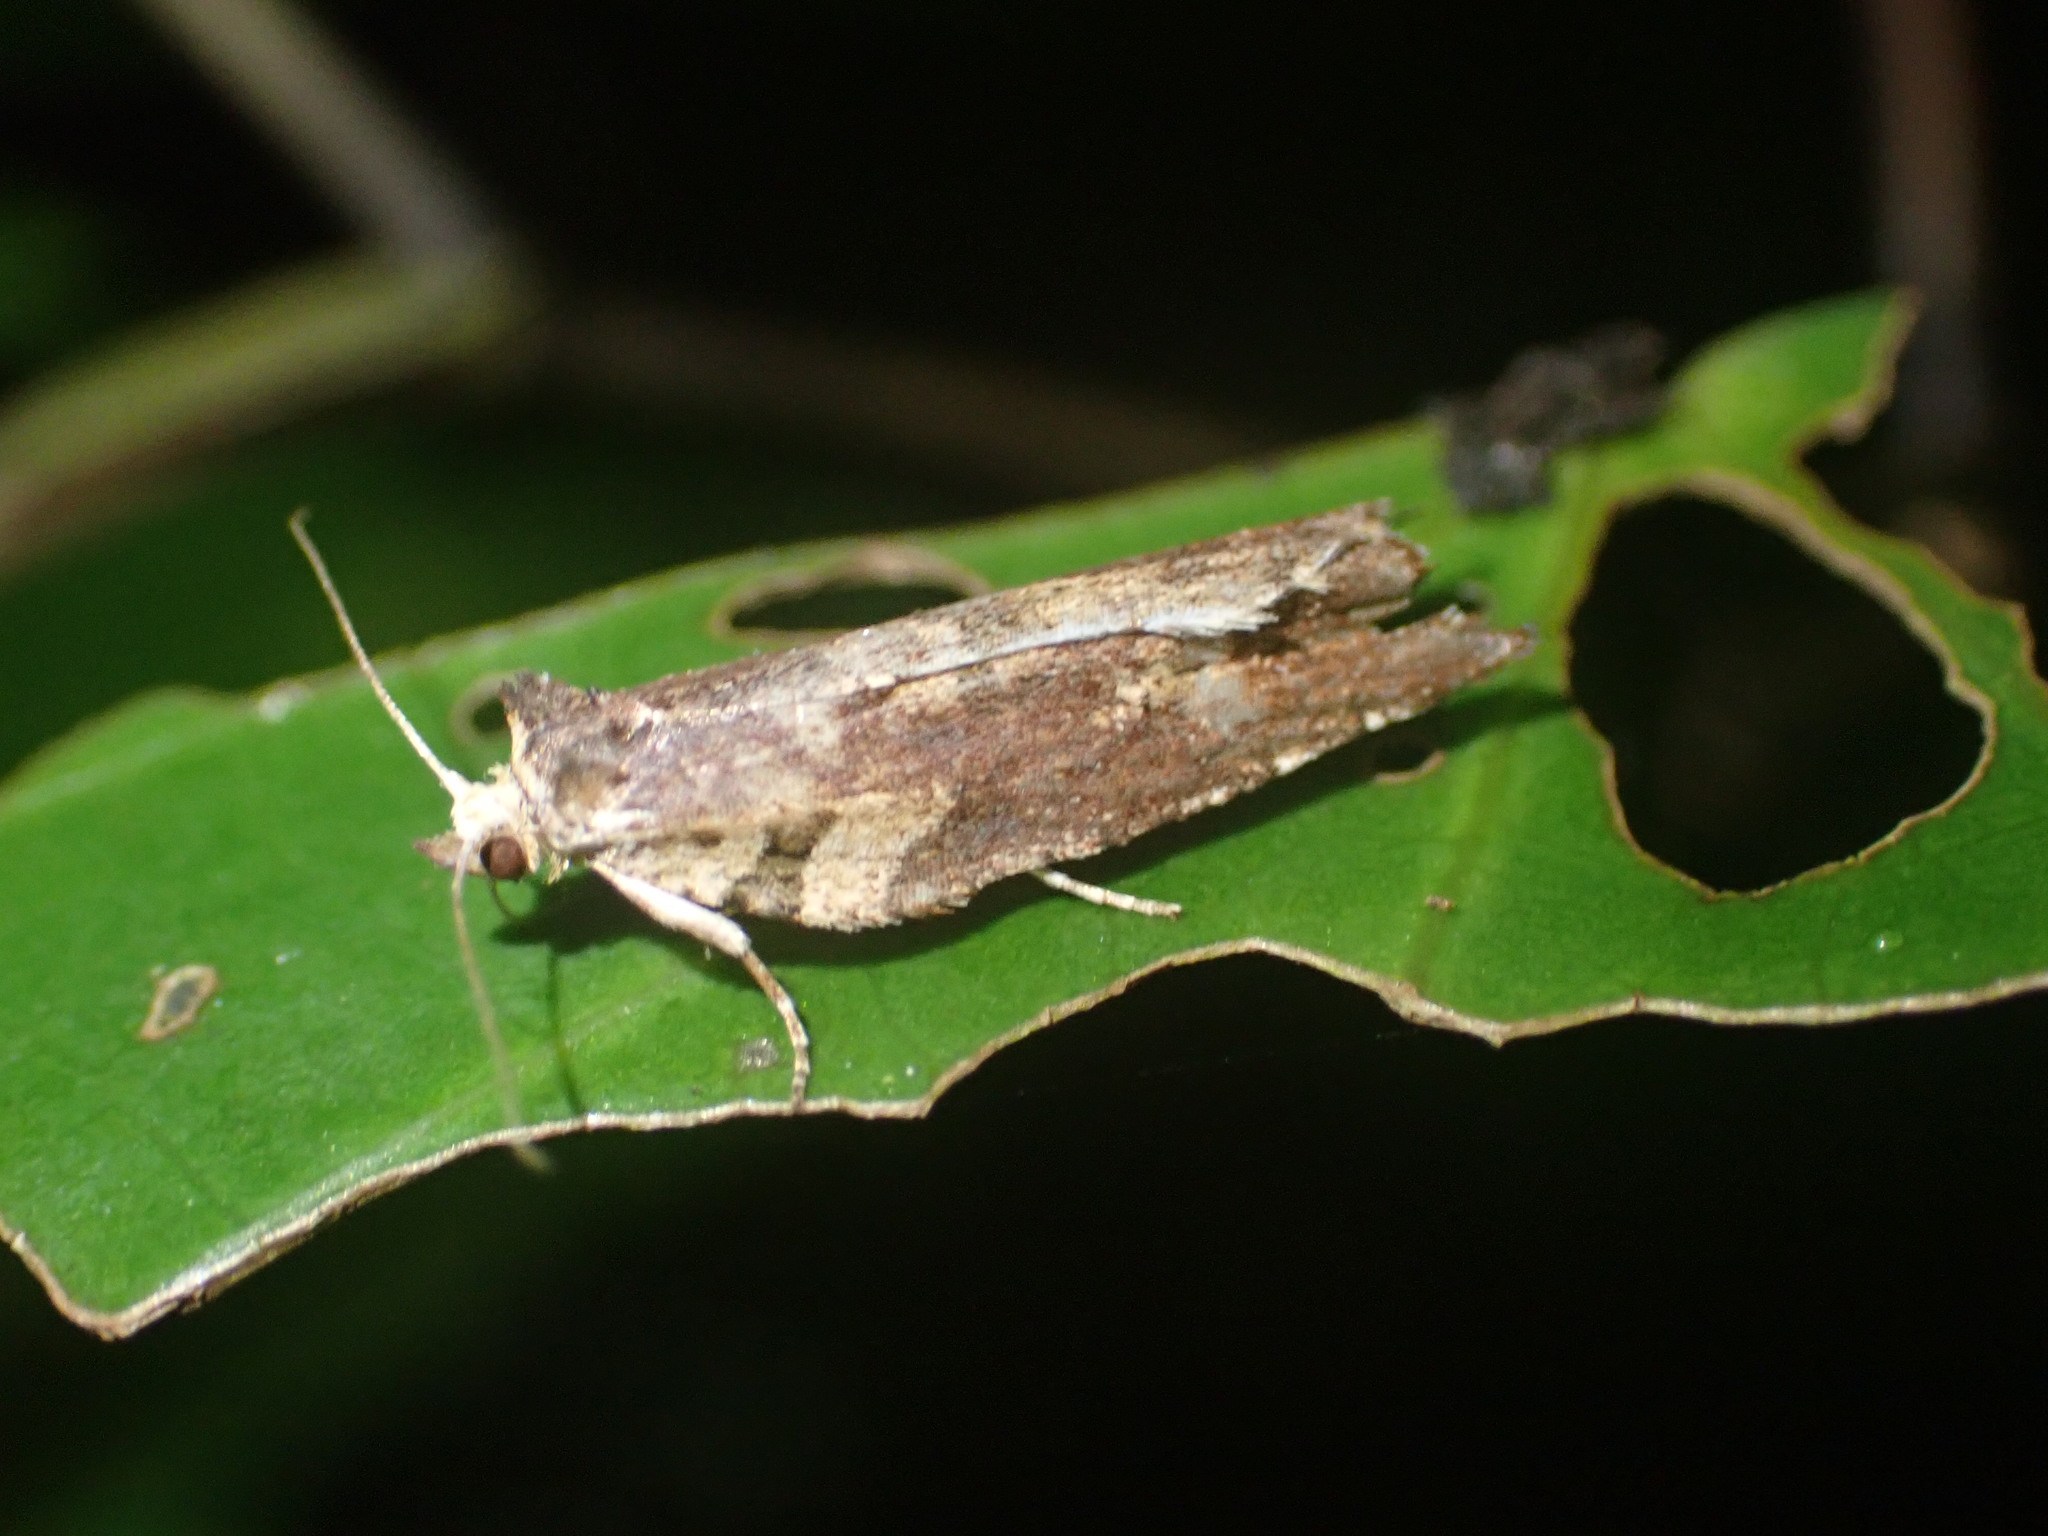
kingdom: Animalia
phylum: Arthropoda
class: Insecta
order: Lepidoptera
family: Tortricidae
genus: Epalxiphora
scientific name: Epalxiphora axenana
